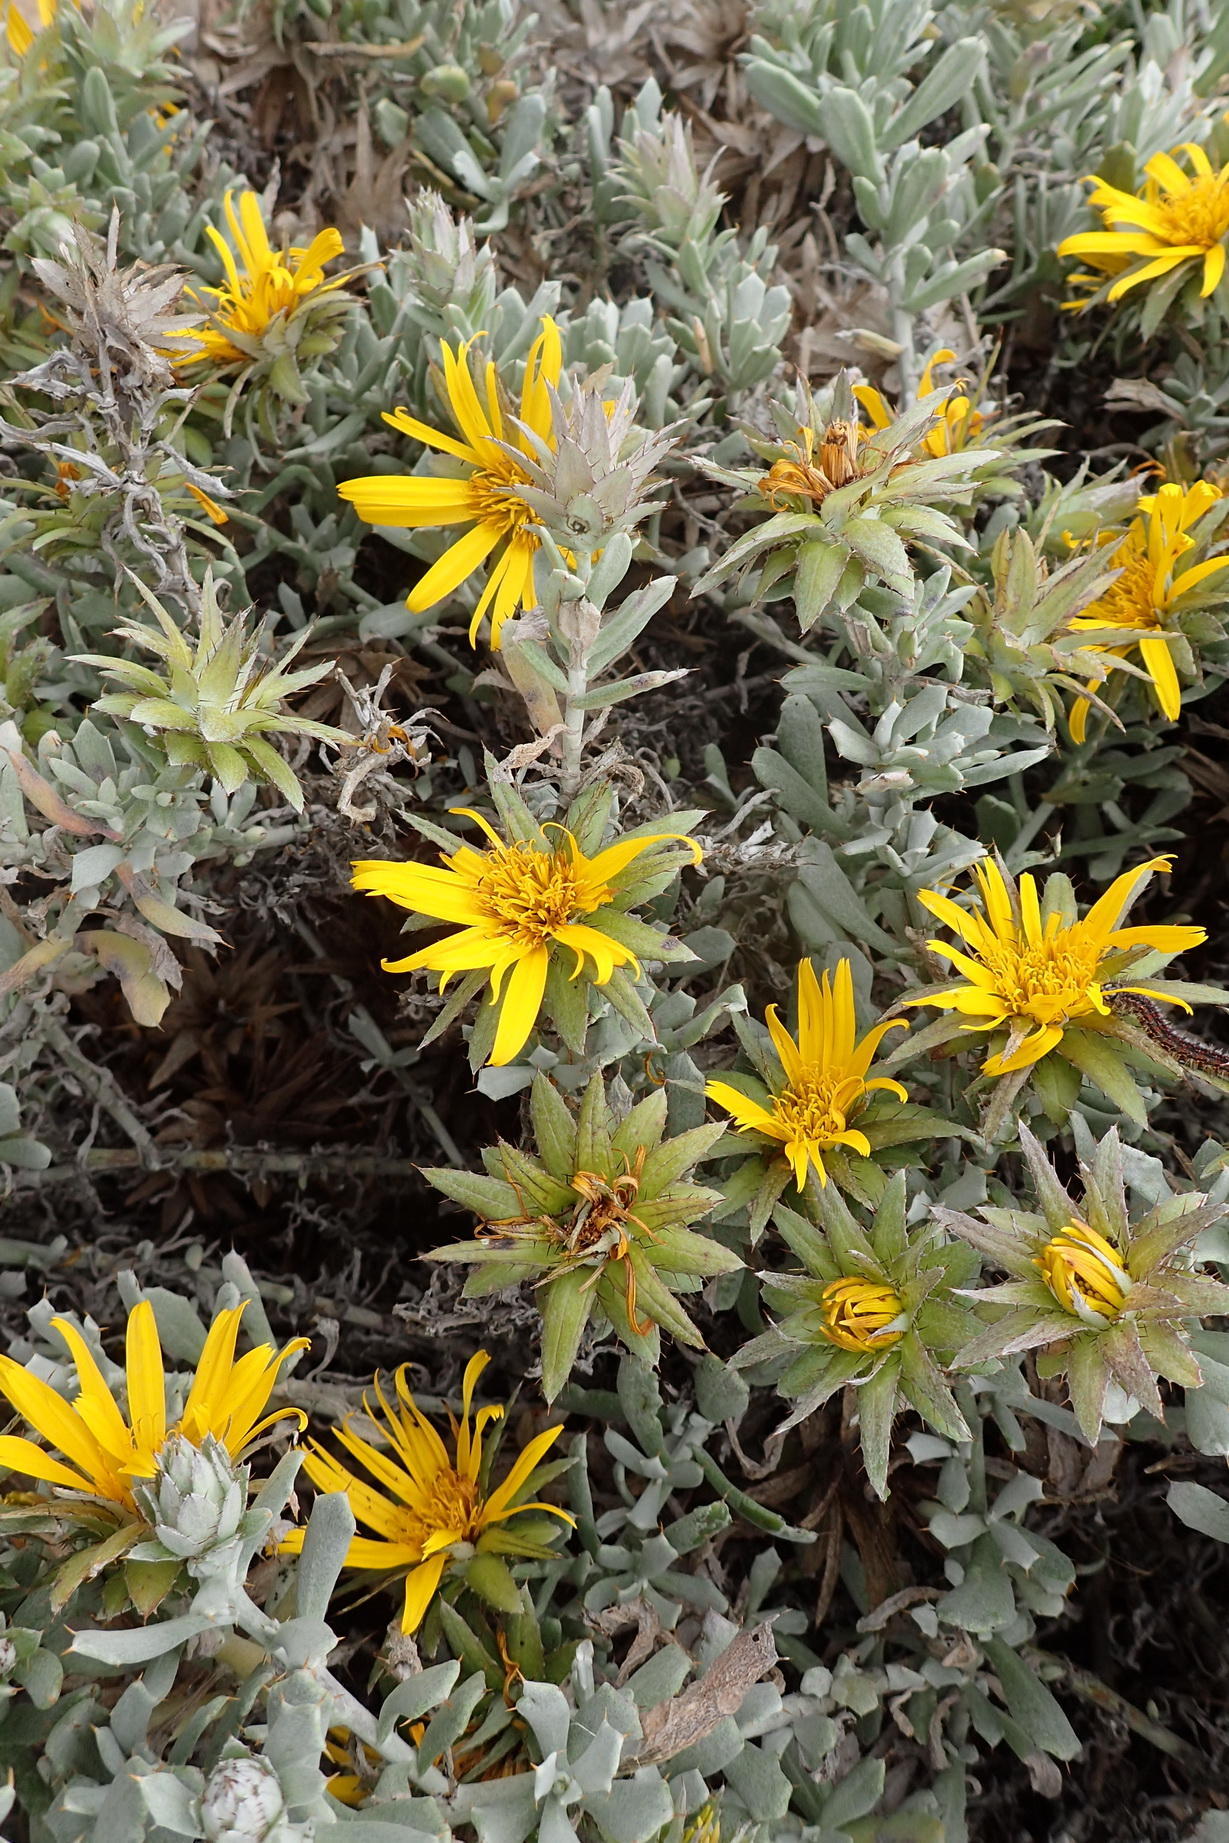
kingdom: Plantae
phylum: Tracheophyta
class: Magnoliopsida
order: Asterales
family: Asteraceae
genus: Berkheya
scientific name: Berkheya cuneata
